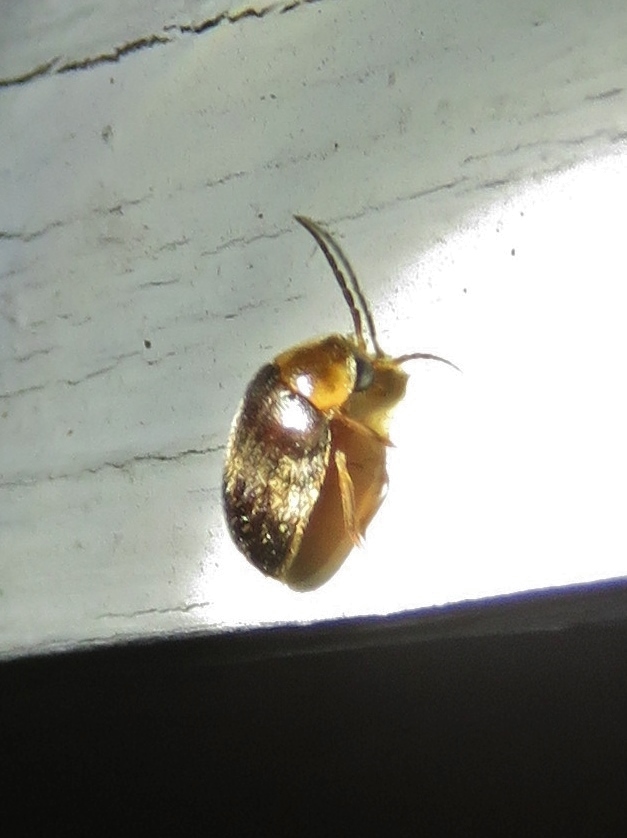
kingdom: Animalia
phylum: Arthropoda
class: Insecta
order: Coleoptera
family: Scirtidae
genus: Sacodes
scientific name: Sacodes pulchella
